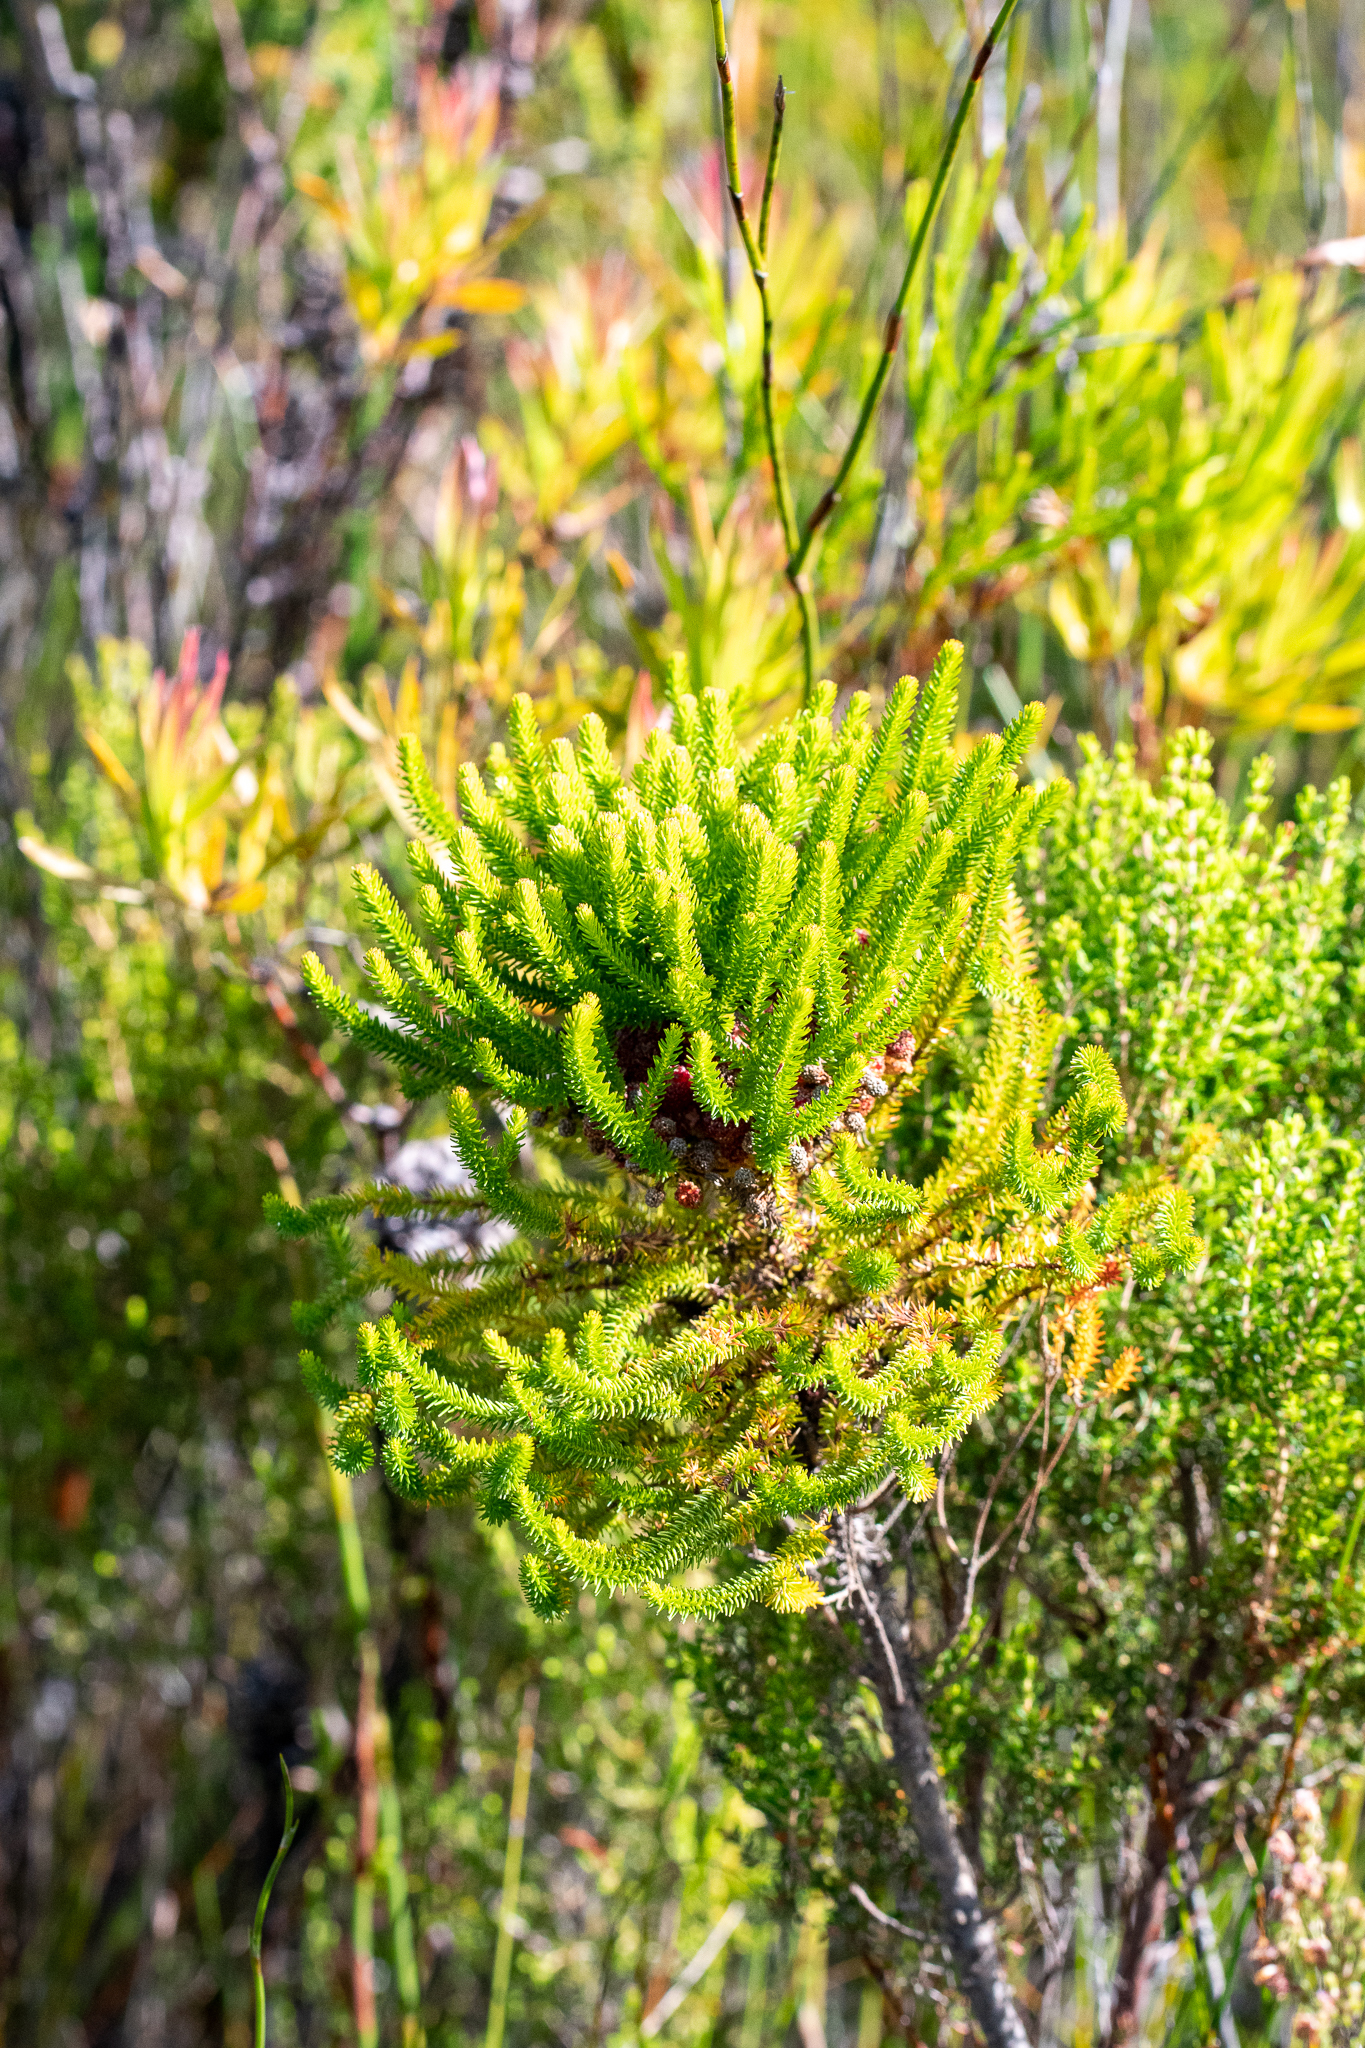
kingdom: Plantae
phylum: Tracheophyta
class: Magnoliopsida
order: Bruniales
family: Bruniaceae
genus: Berzelia
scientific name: Berzelia alopecurioides
